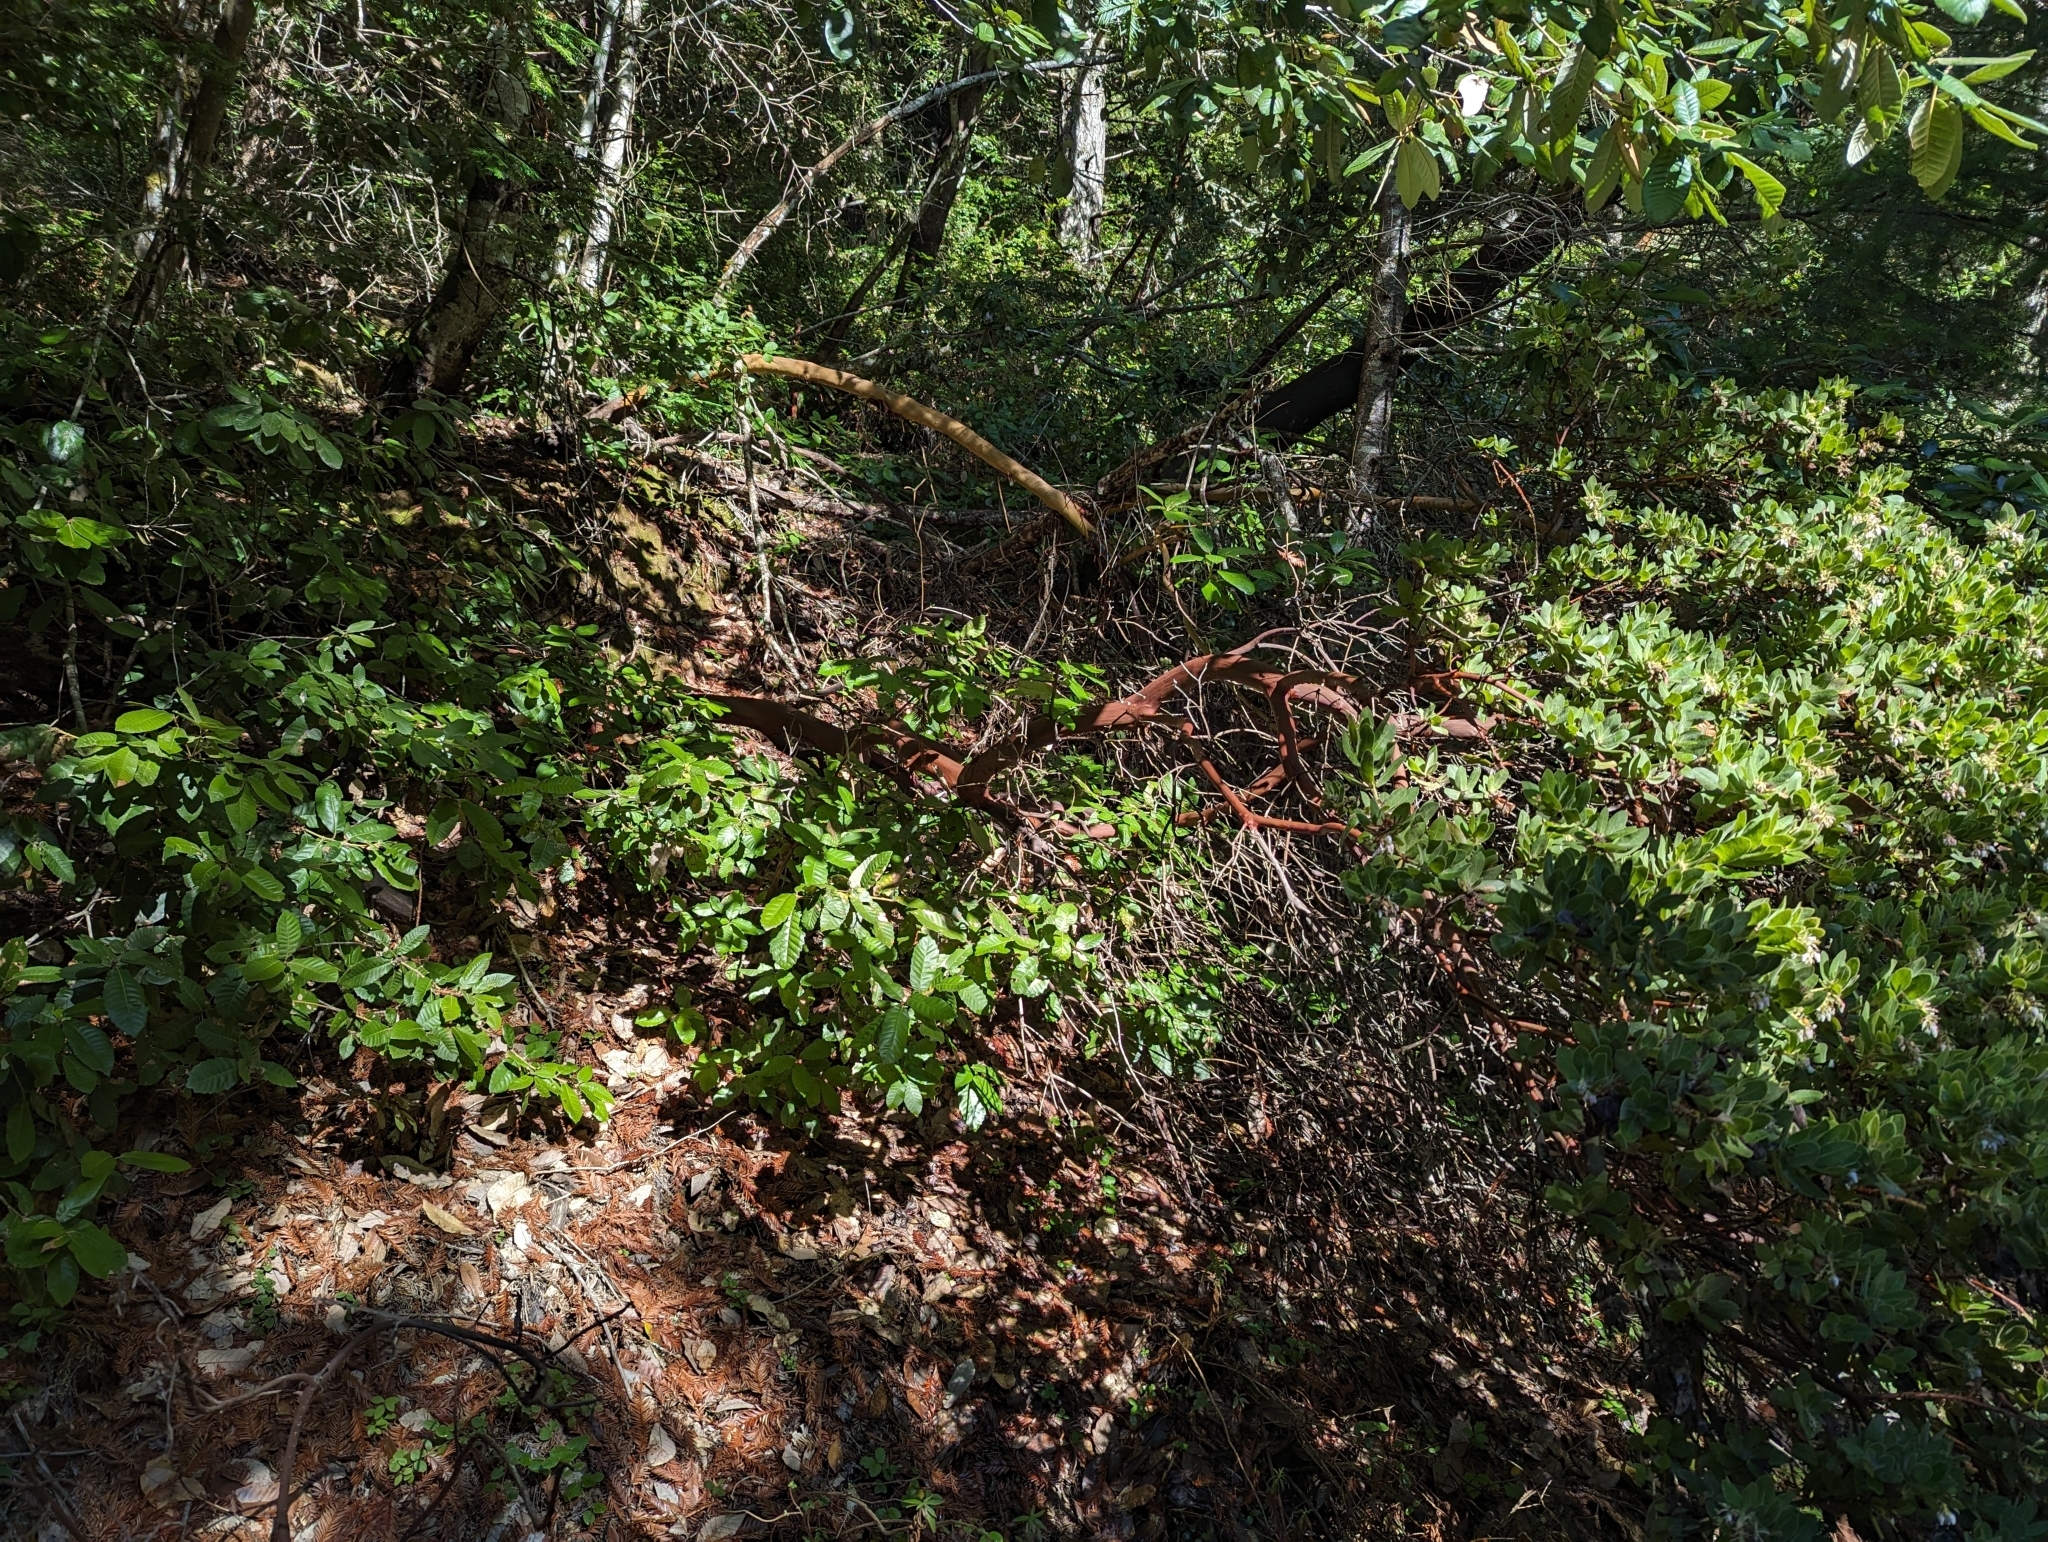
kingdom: Plantae
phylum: Tracheophyta
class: Magnoliopsida
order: Ericales
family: Ericaceae
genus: Arctostaphylos
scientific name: Arctostaphylos regismontana
